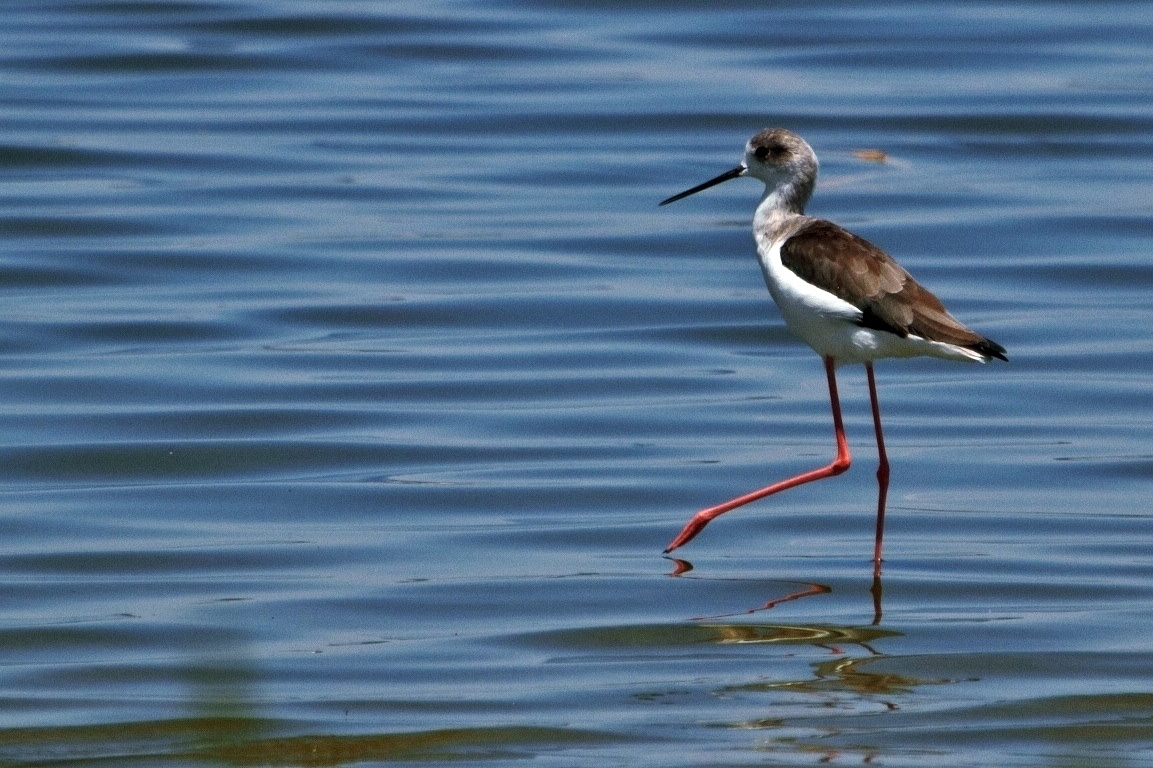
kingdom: Animalia
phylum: Chordata
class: Aves
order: Charadriiformes
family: Recurvirostridae
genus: Himantopus
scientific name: Himantopus himantopus
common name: Black-winged stilt
